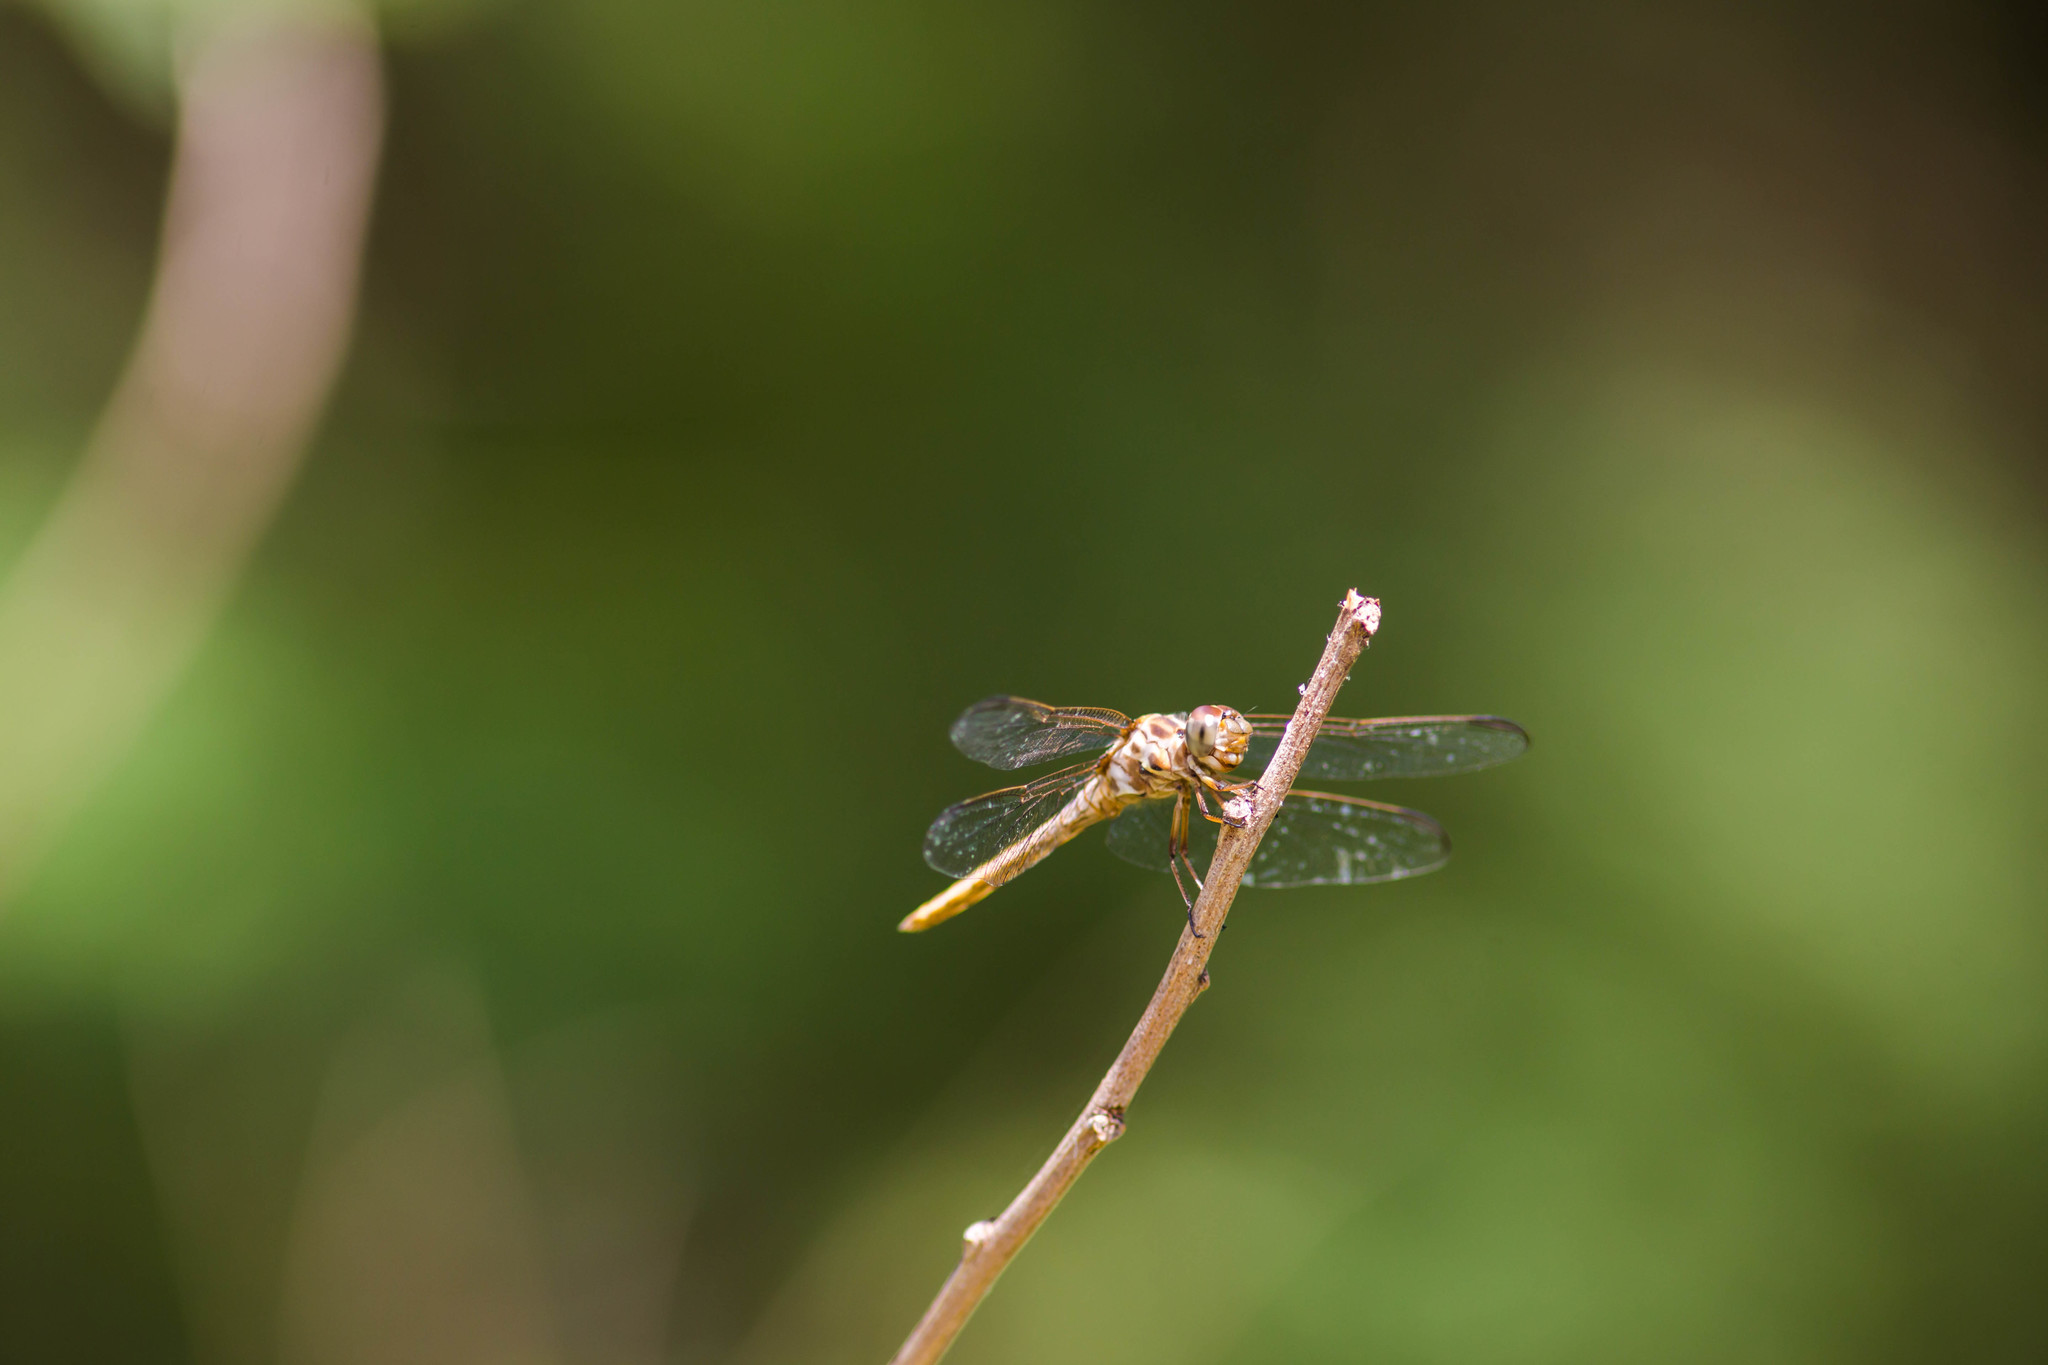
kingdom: Animalia
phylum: Arthropoda
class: Insecta
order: Odonata
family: Libellulidae
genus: Orthemis
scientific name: Orthemis ferruginea
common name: Roseate skimmer
